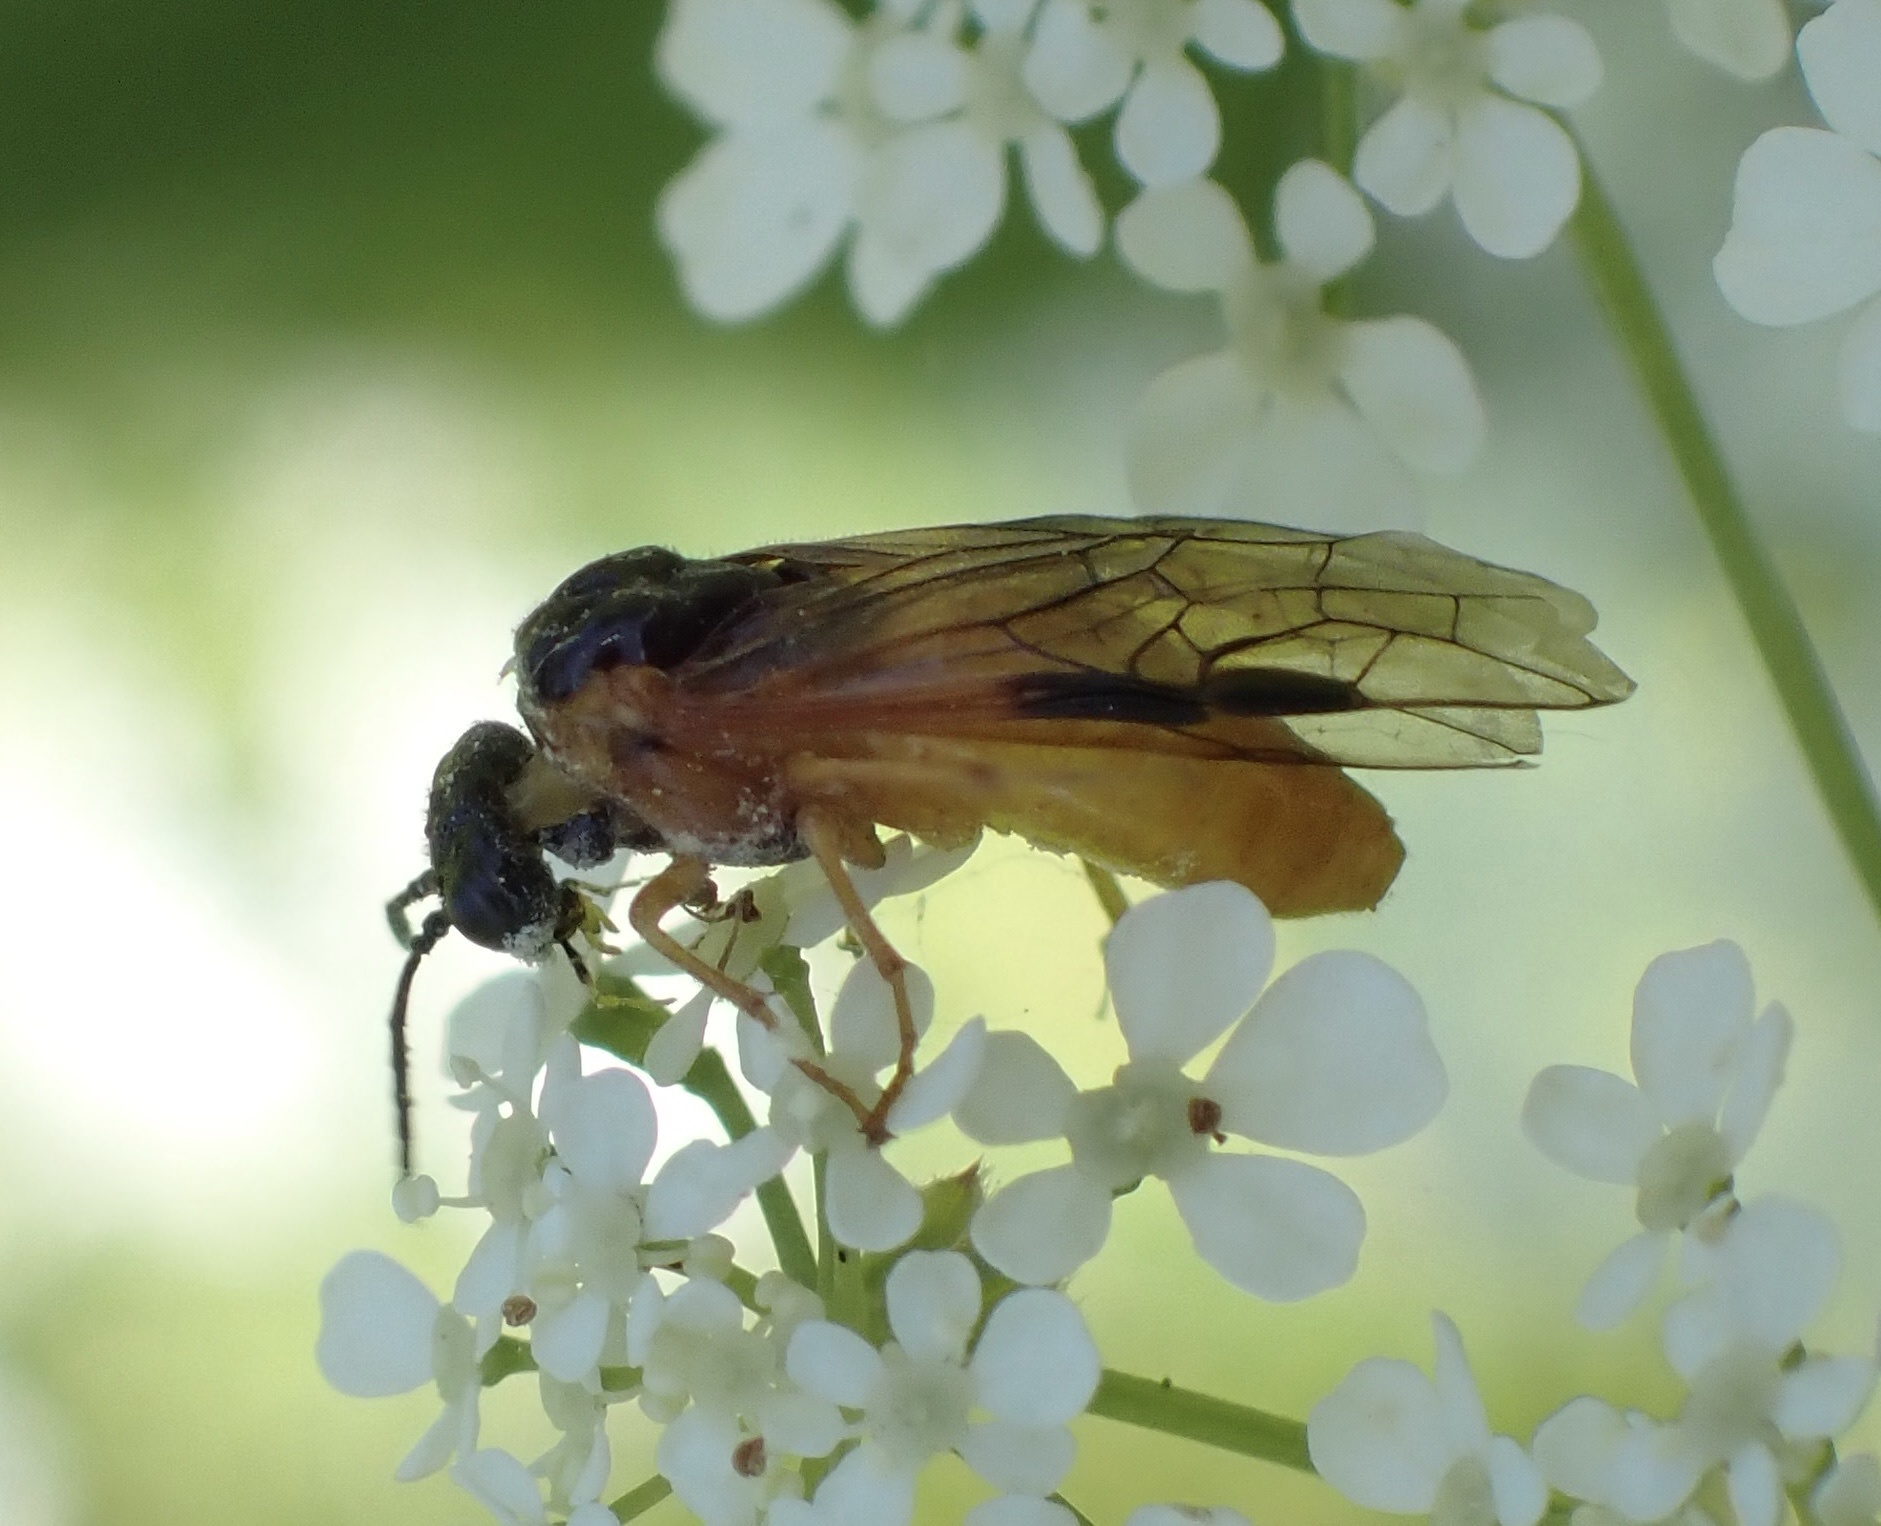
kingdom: Animalia
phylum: Arthropoda
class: Insecta
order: Hymenoptera
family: Tenthredinidae
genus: Selandria
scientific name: Selandria serva
